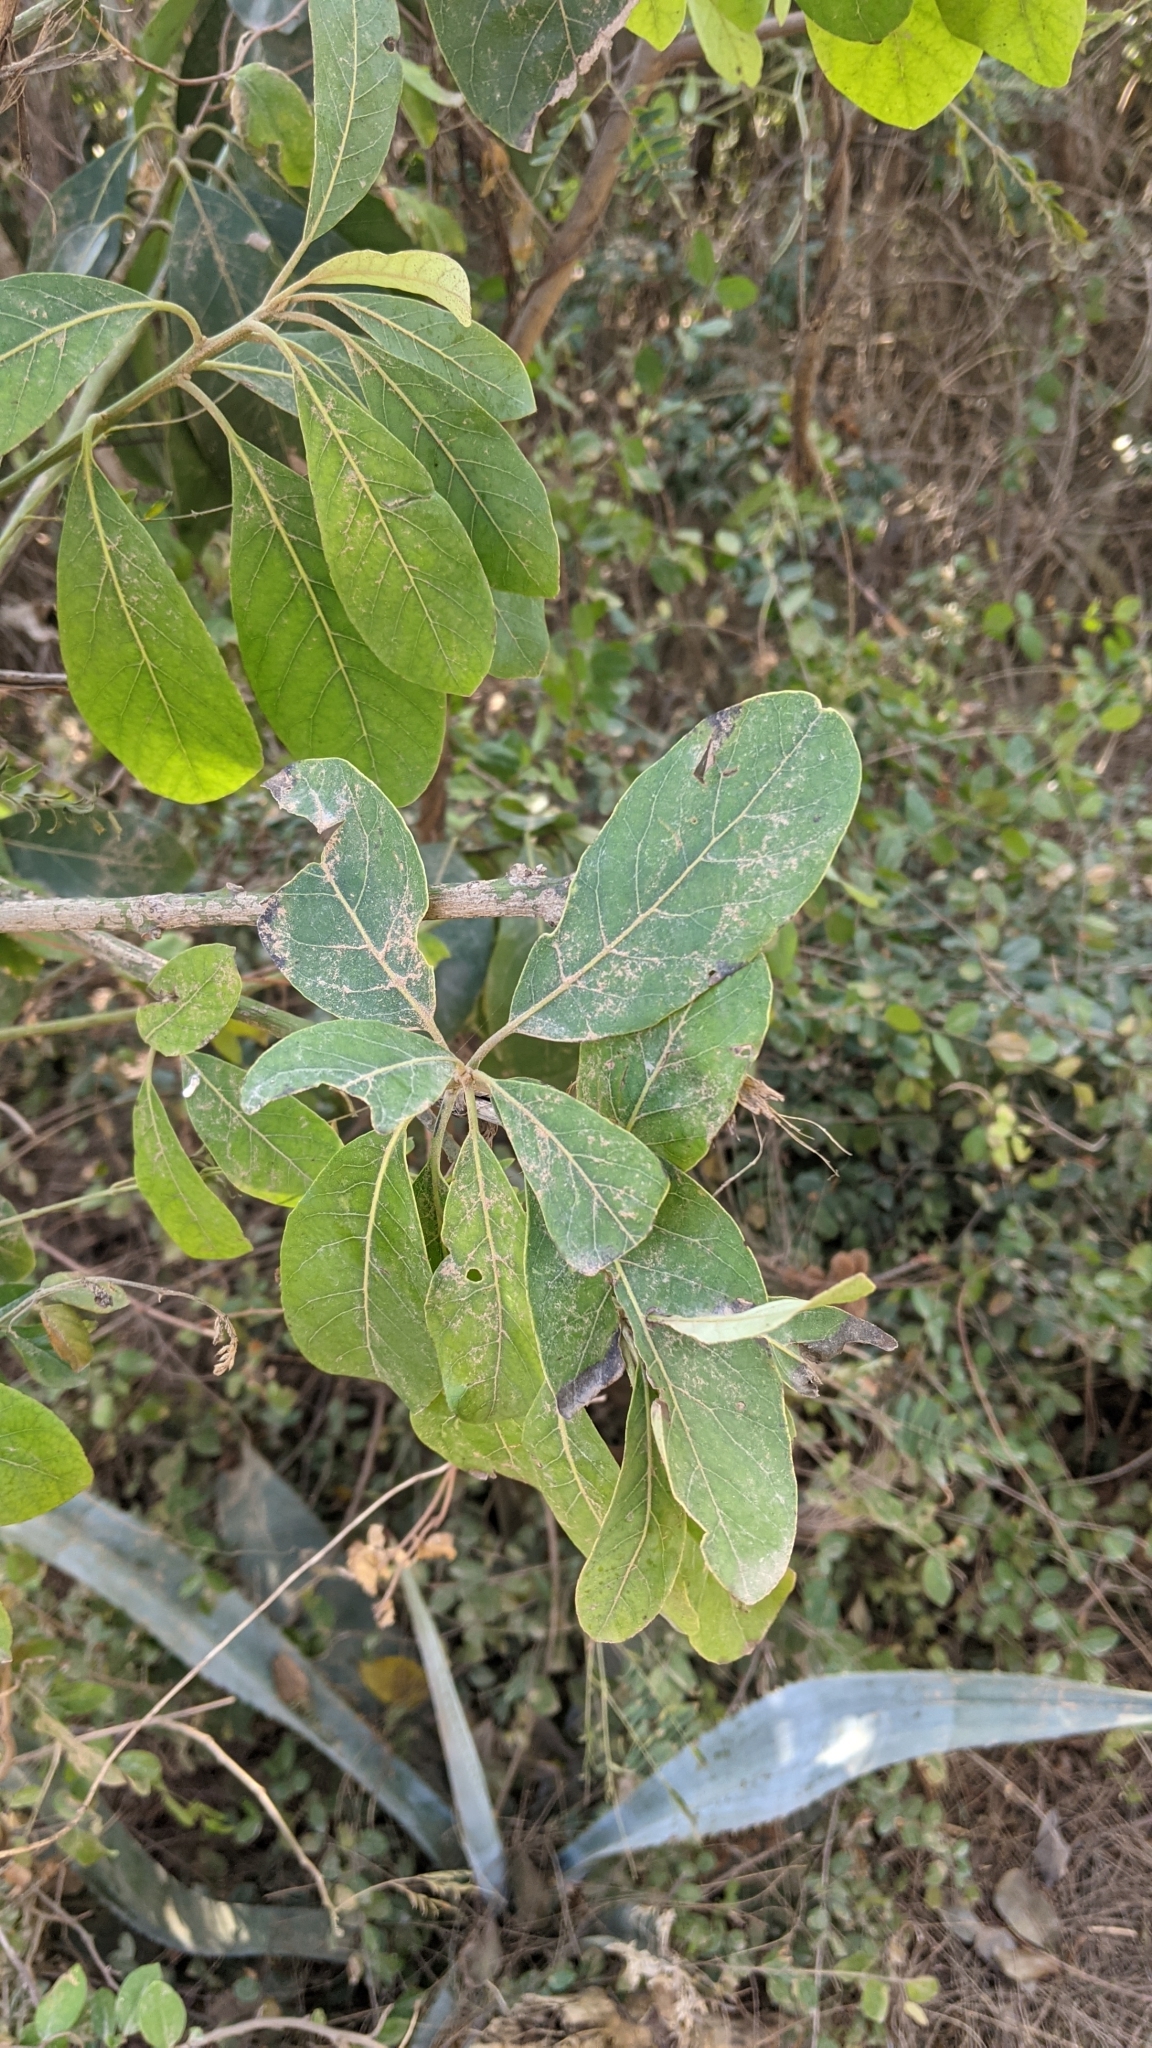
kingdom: Plantae
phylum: Tracheophyta
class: Magnoliopsida
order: Laurales
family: Lauraceae
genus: Litsea
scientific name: Litsea glutinosa
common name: Indian-laurel
